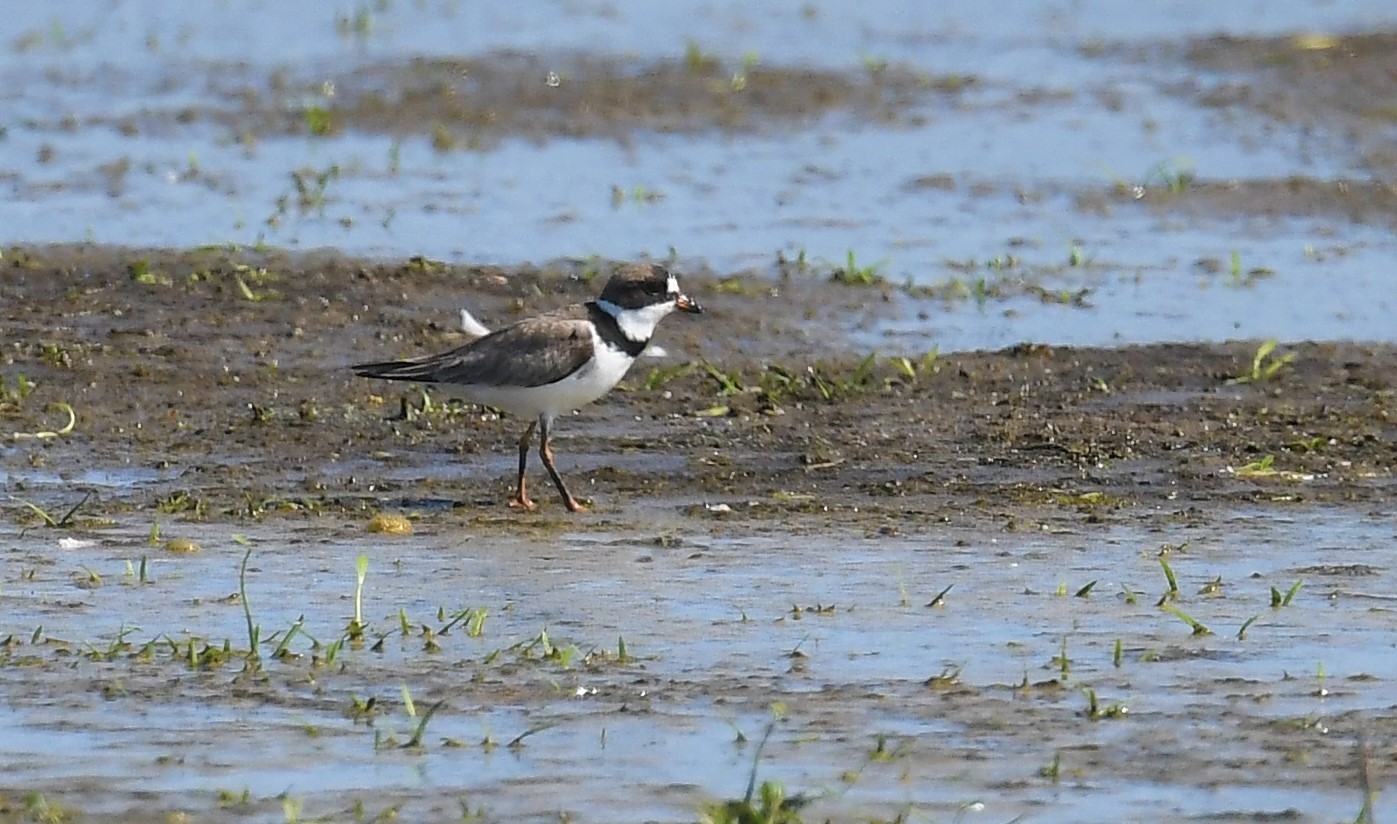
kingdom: Animalia
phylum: Chordata
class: Aves
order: Charadriiformes
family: Charadriidae
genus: Charadrius
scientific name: Charadrius semipalmatus
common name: Semipalmated plover
